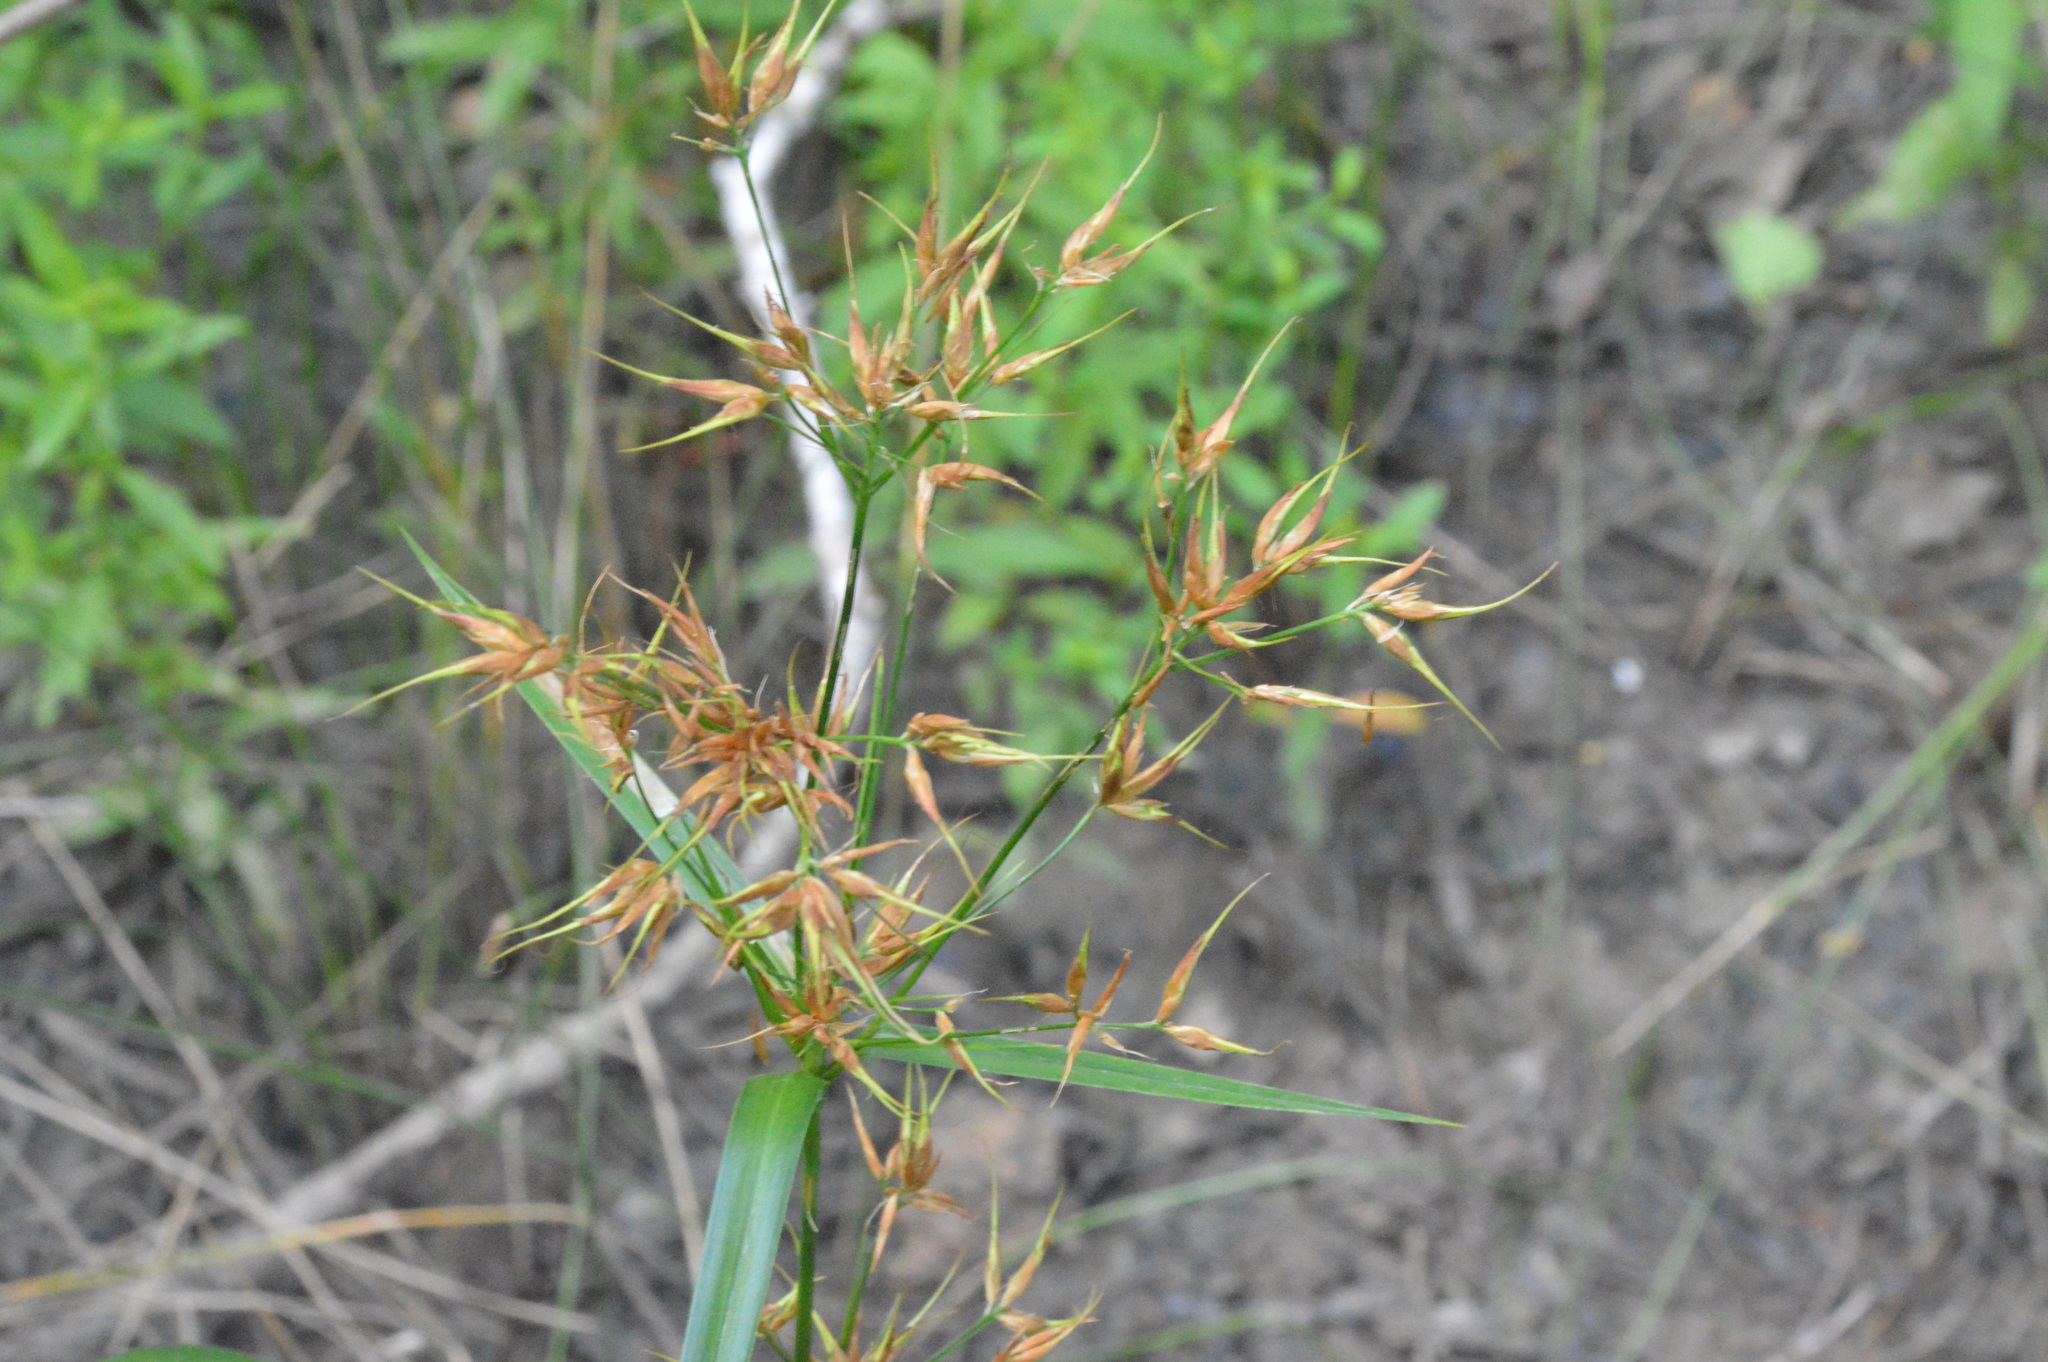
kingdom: Plantae
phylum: Tracheophyta
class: Liliopsida
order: Poales
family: Cyperaceae
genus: Rhynchospora
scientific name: Rhynchospora corniculata
